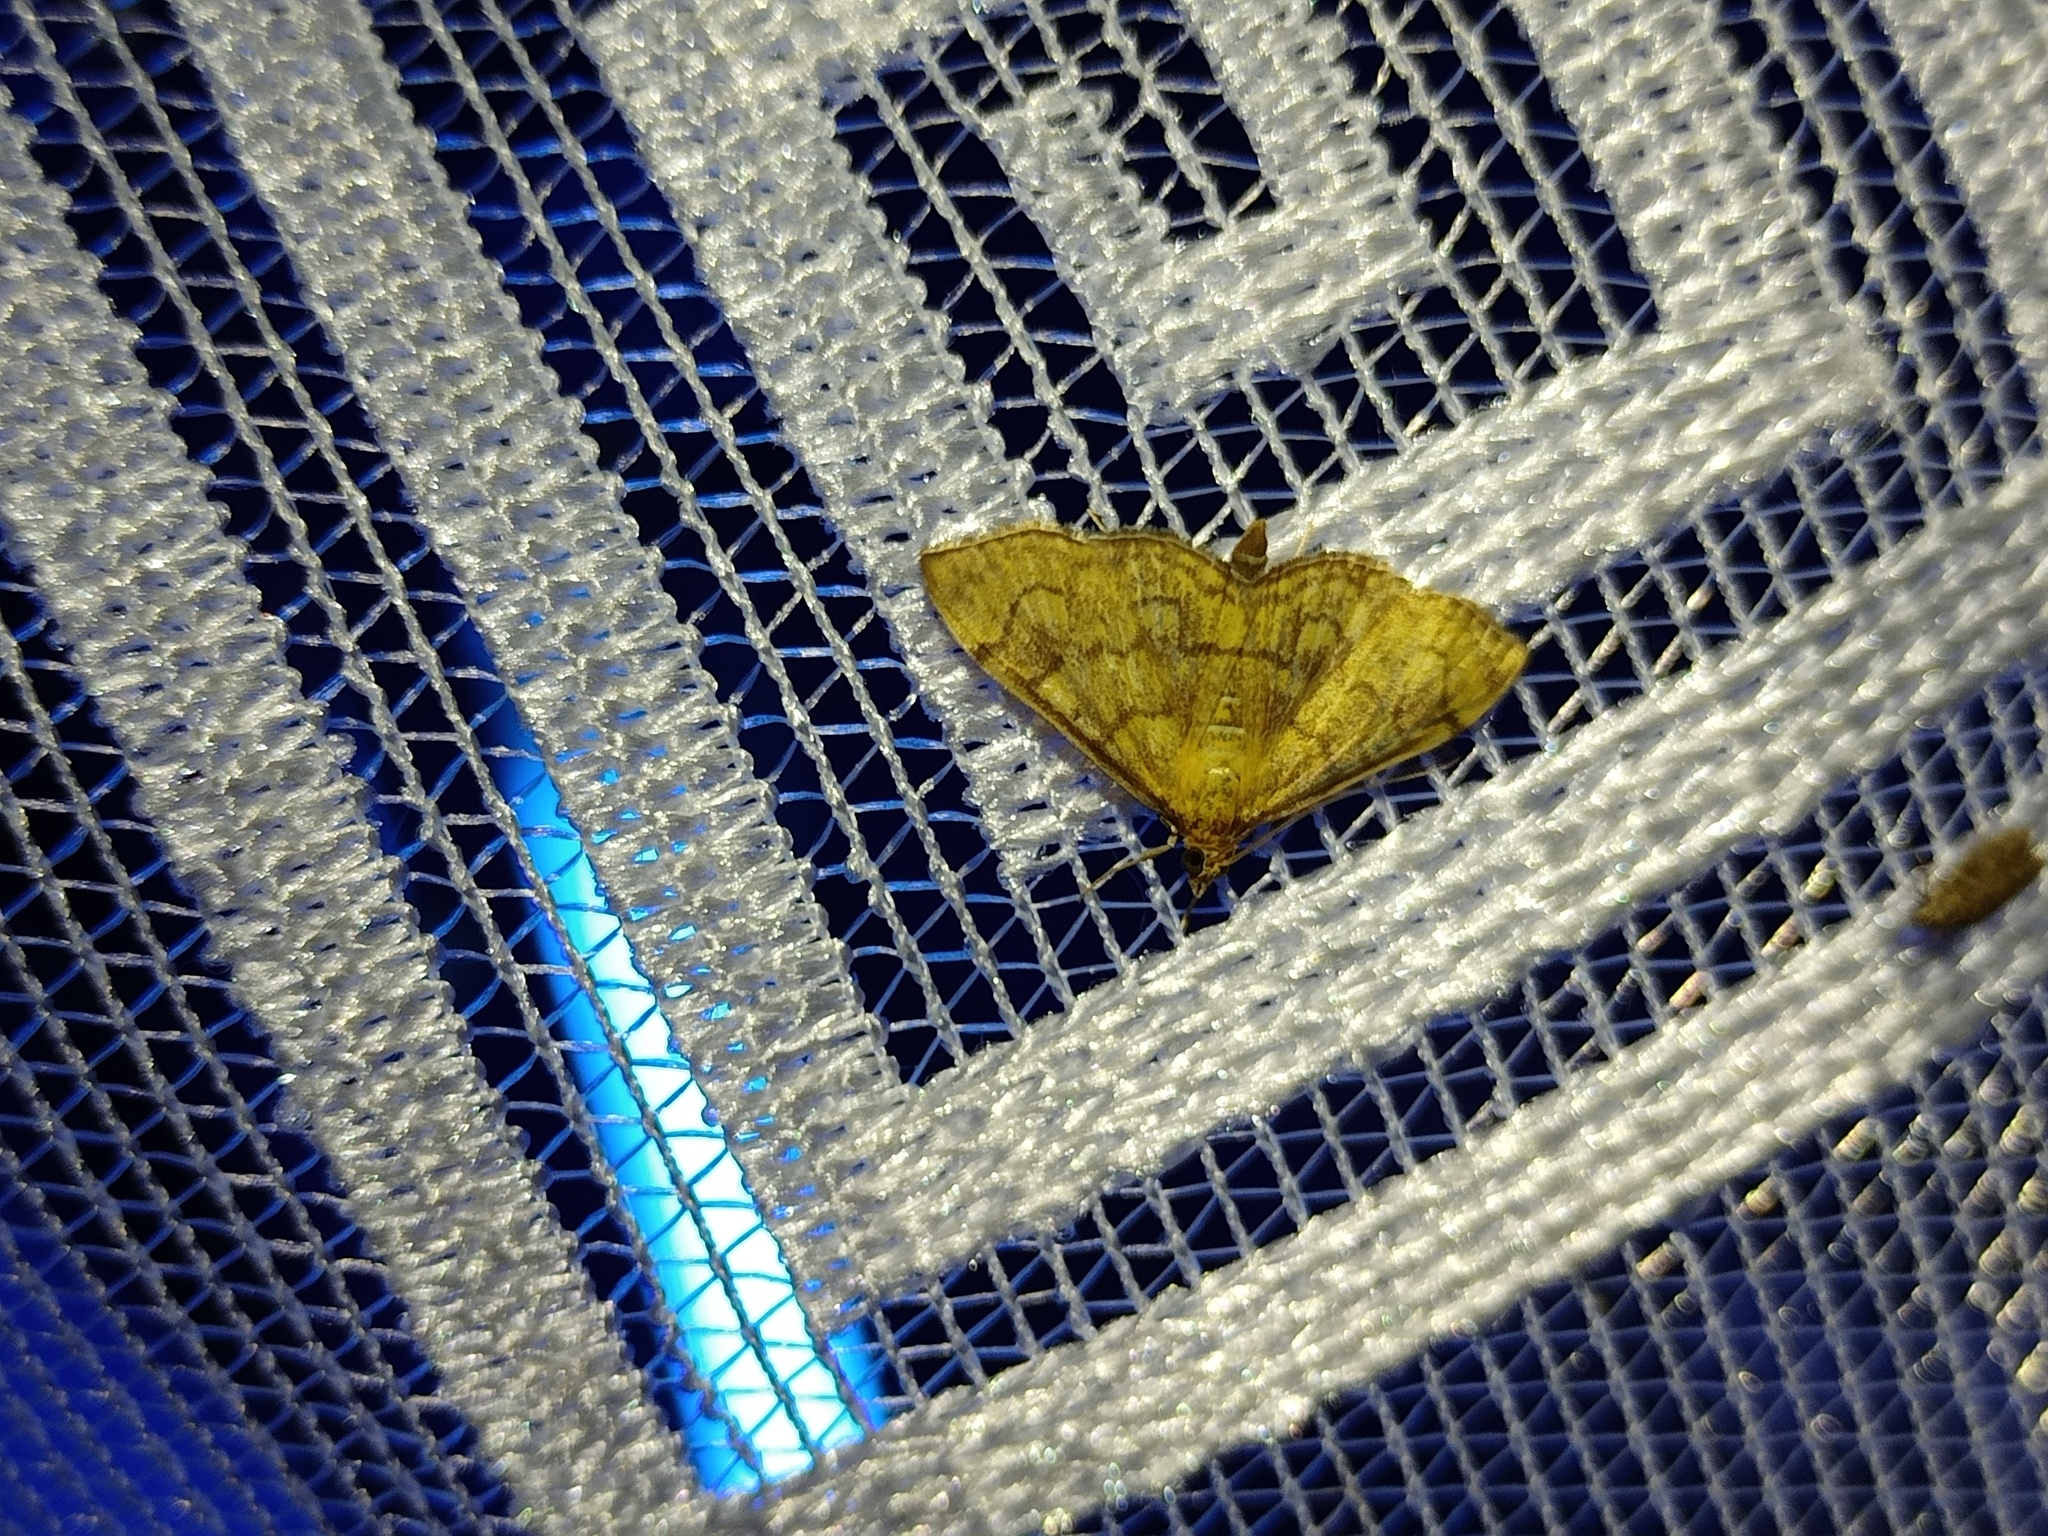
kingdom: Animalia
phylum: Arthropoda
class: Insecta
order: Lepidoptera
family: Crambidae
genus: Anania
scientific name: Anania verbascalis
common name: Golden pearl
